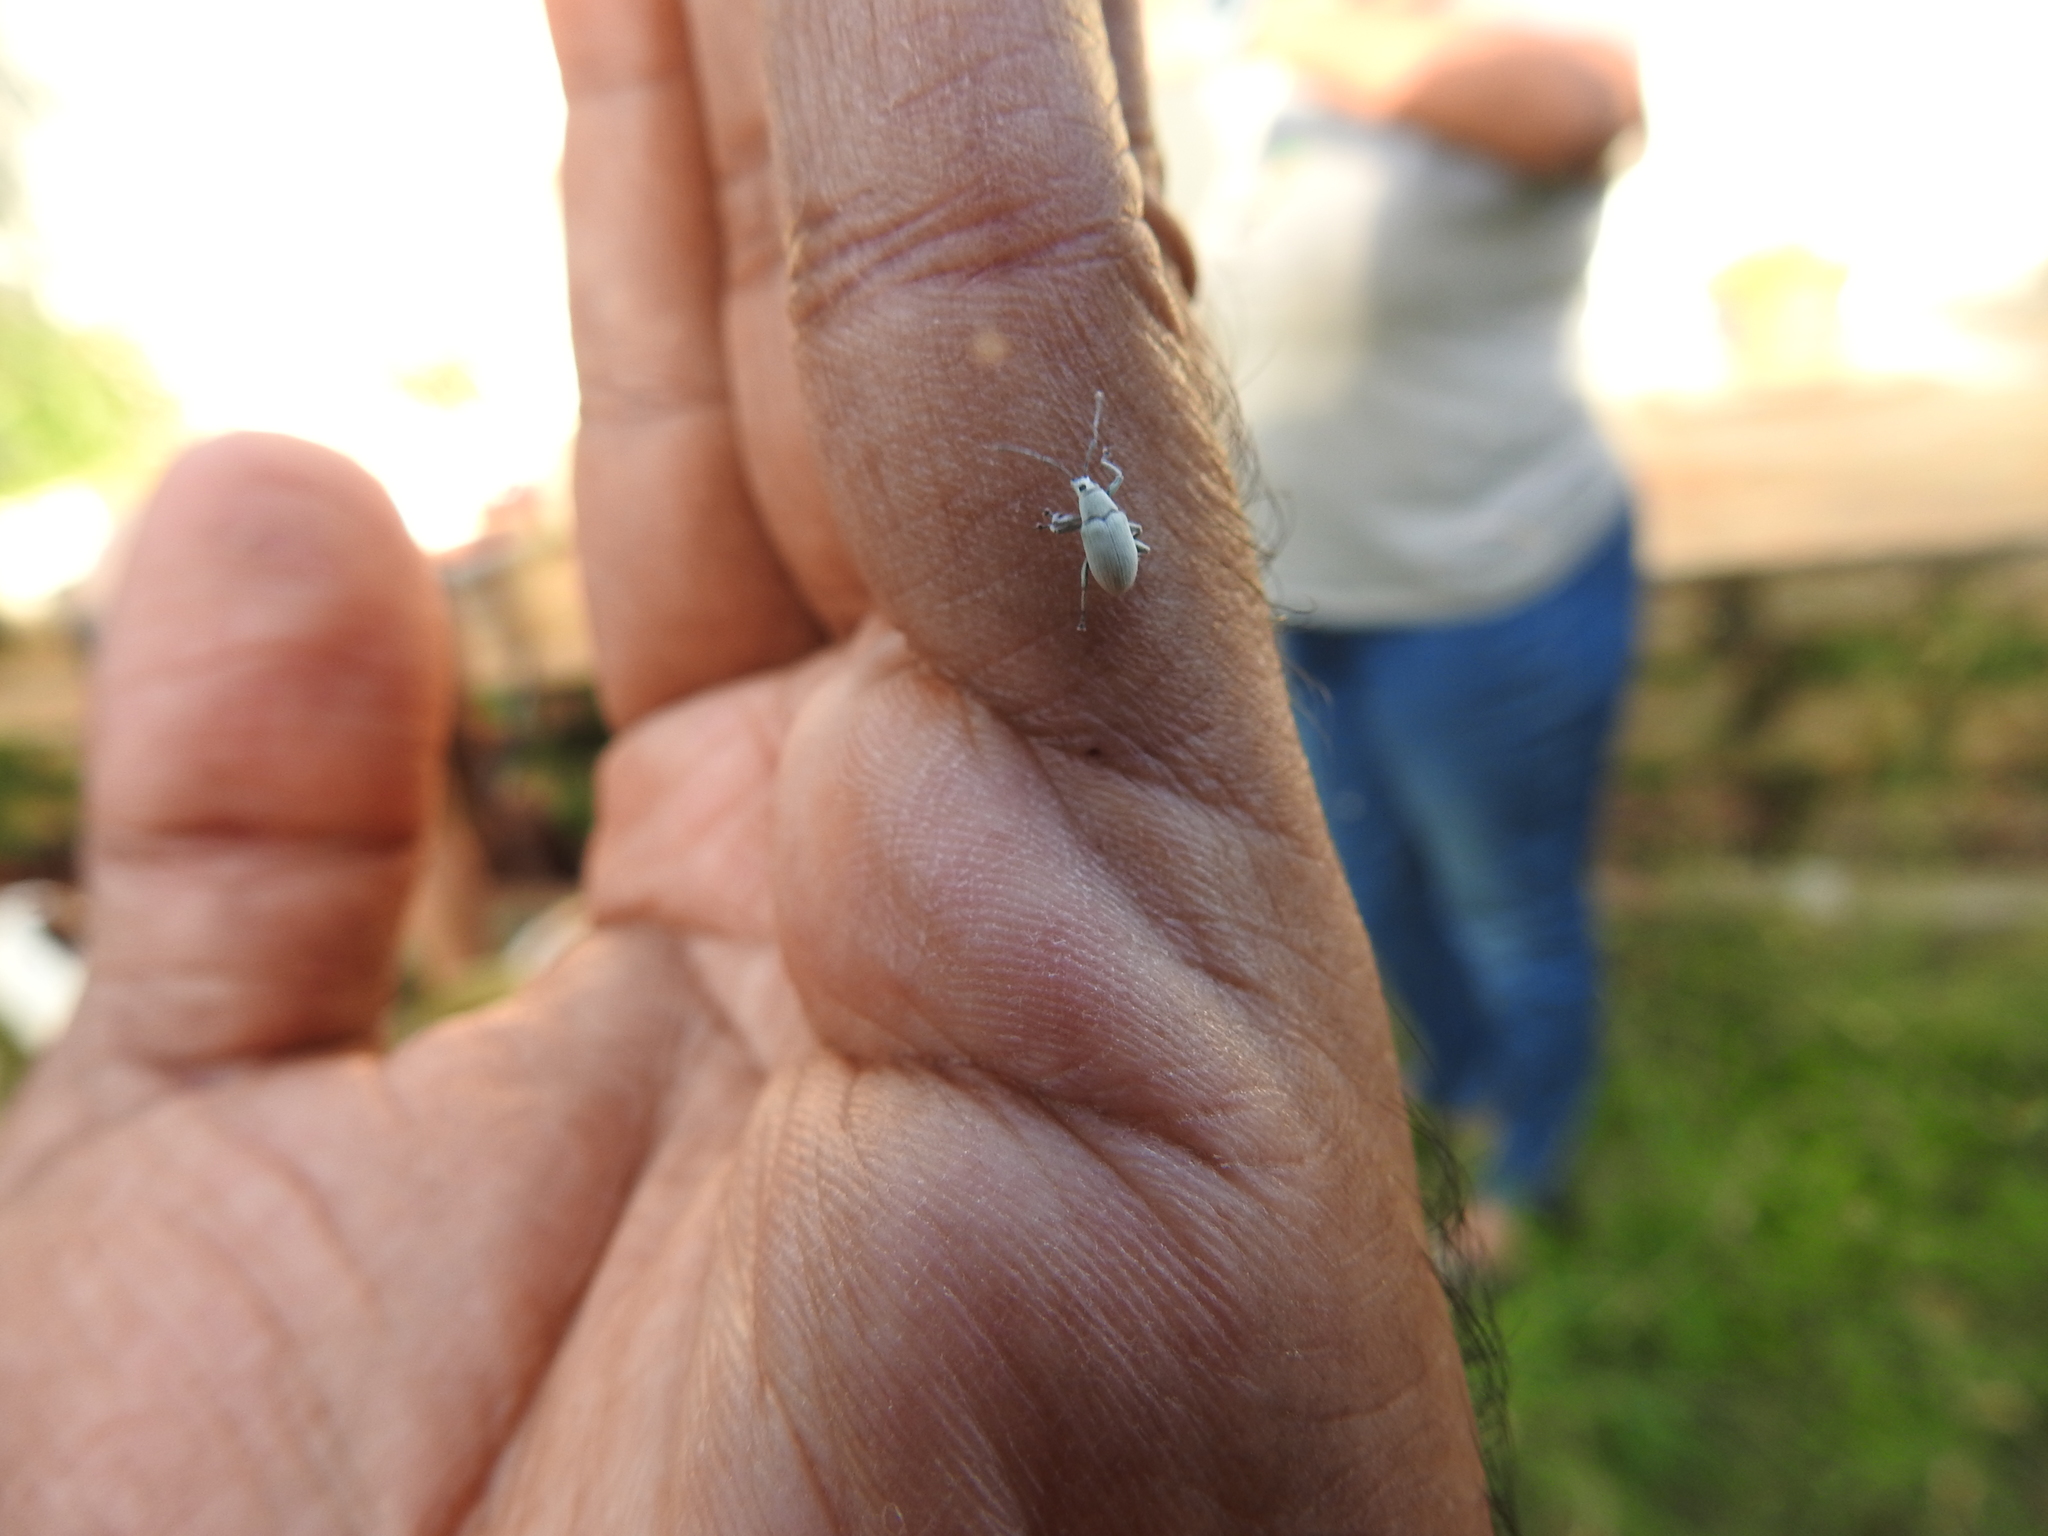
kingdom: Animalia
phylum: Arthropoda
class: Insecta
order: Coleoptera
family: Curculionidae
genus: Myllocerus
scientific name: Myllocerus paetus
